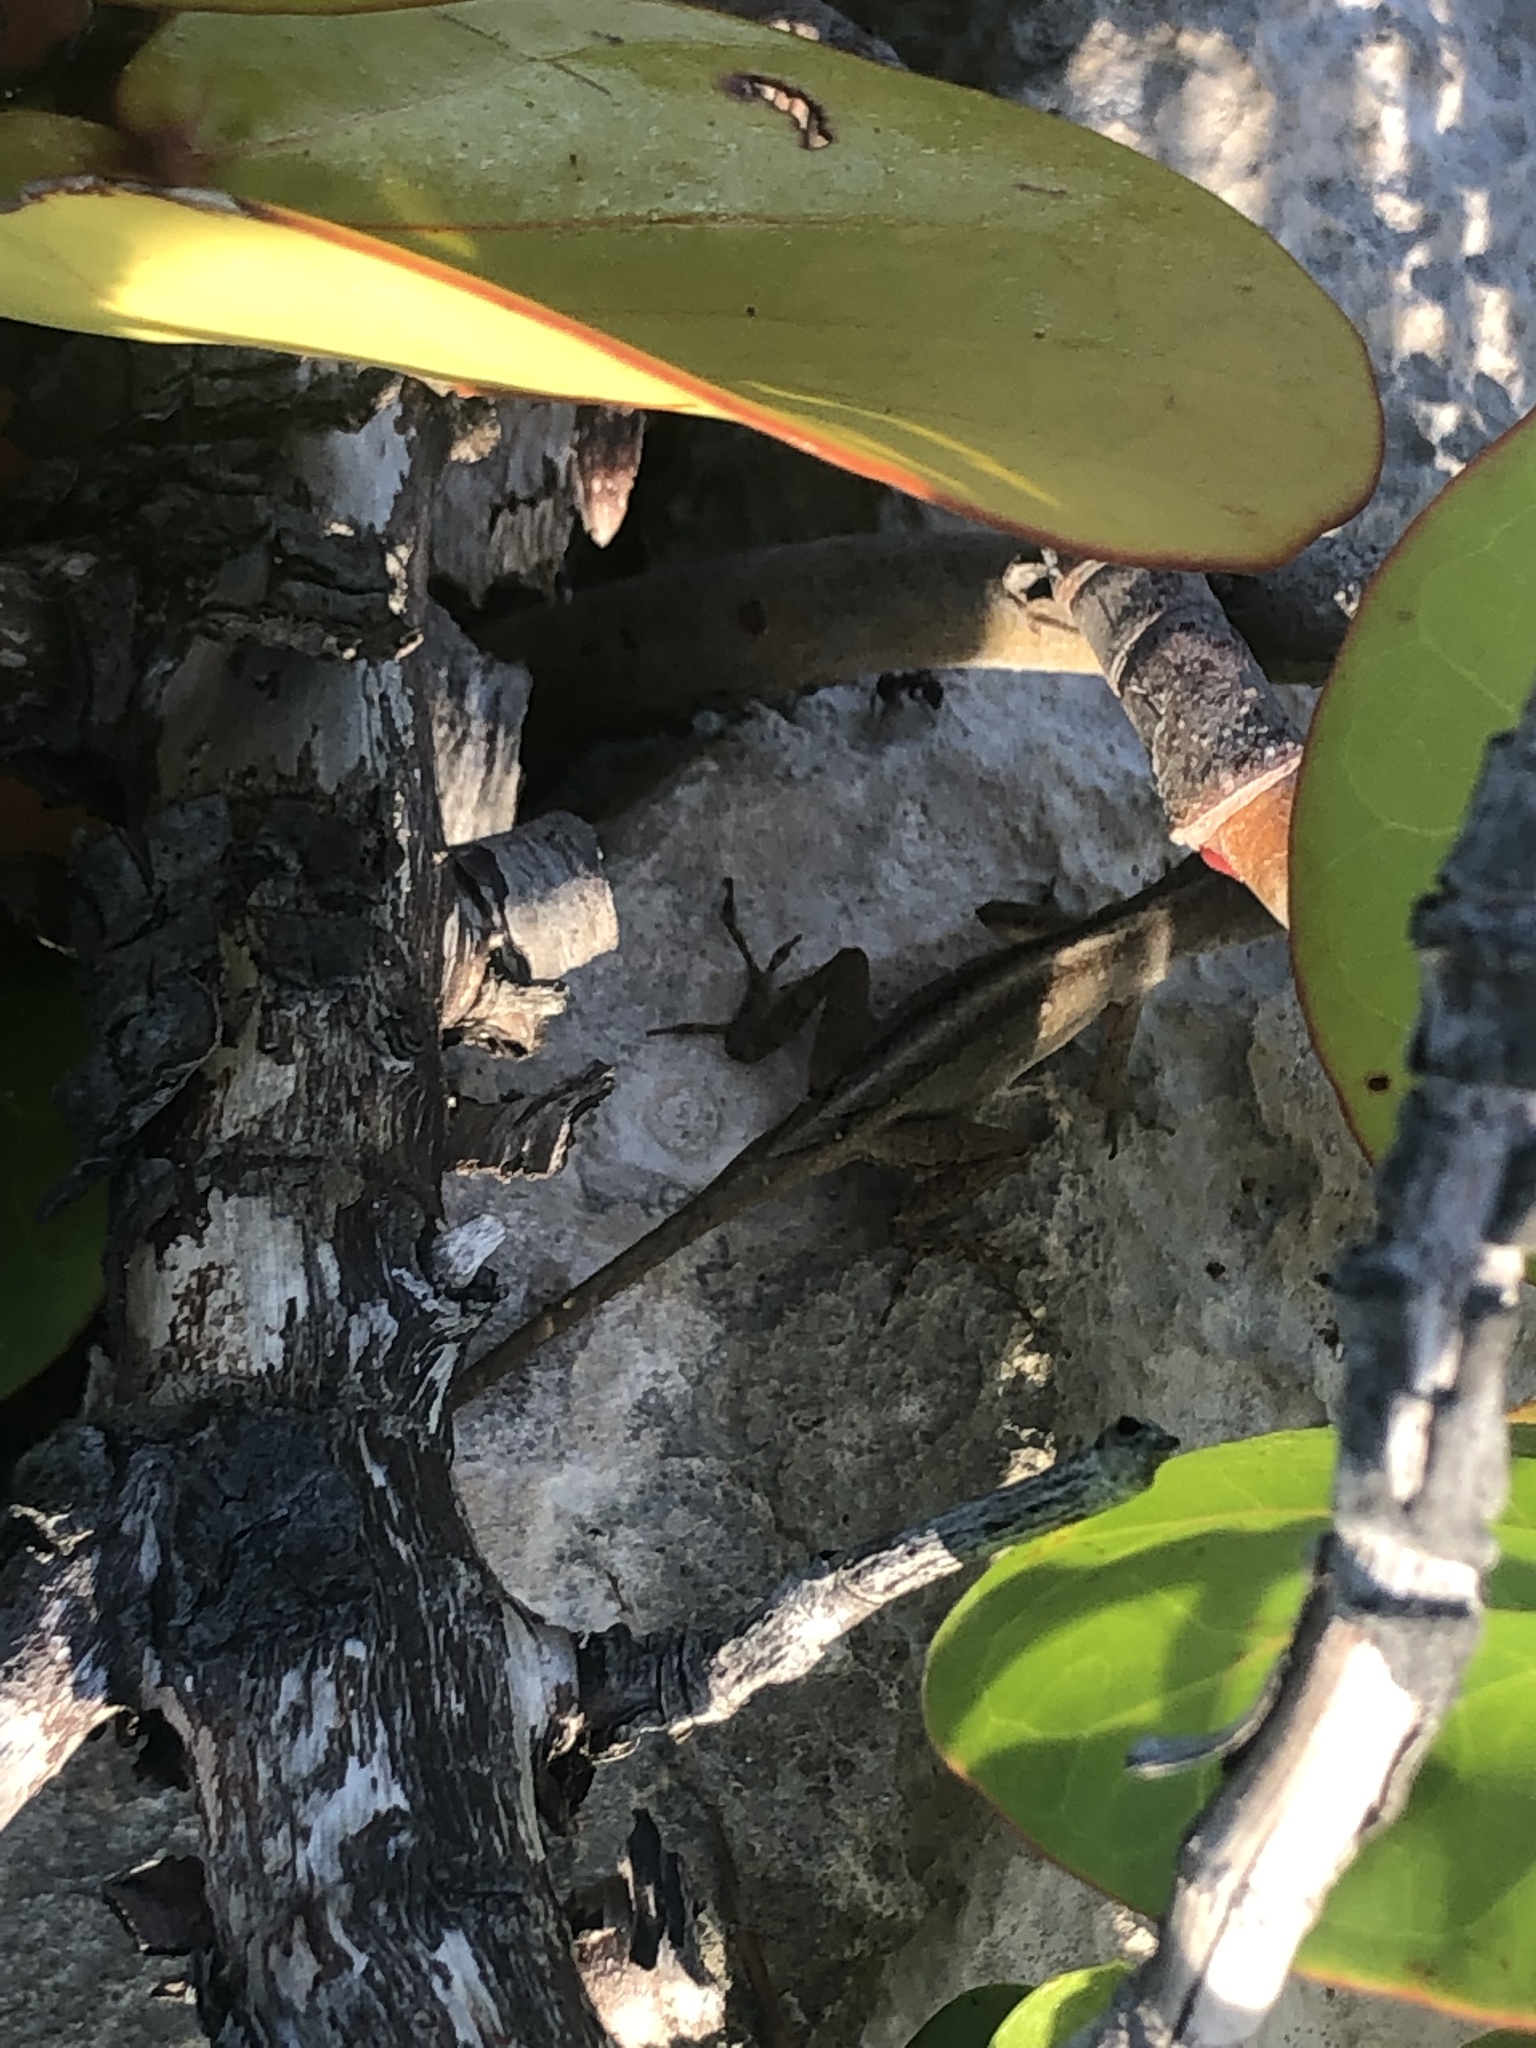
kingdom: Animalia
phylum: Chordata
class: Squamata
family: Dactyloidae
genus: Anolis
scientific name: Anolis sagrei
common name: Brown anole
